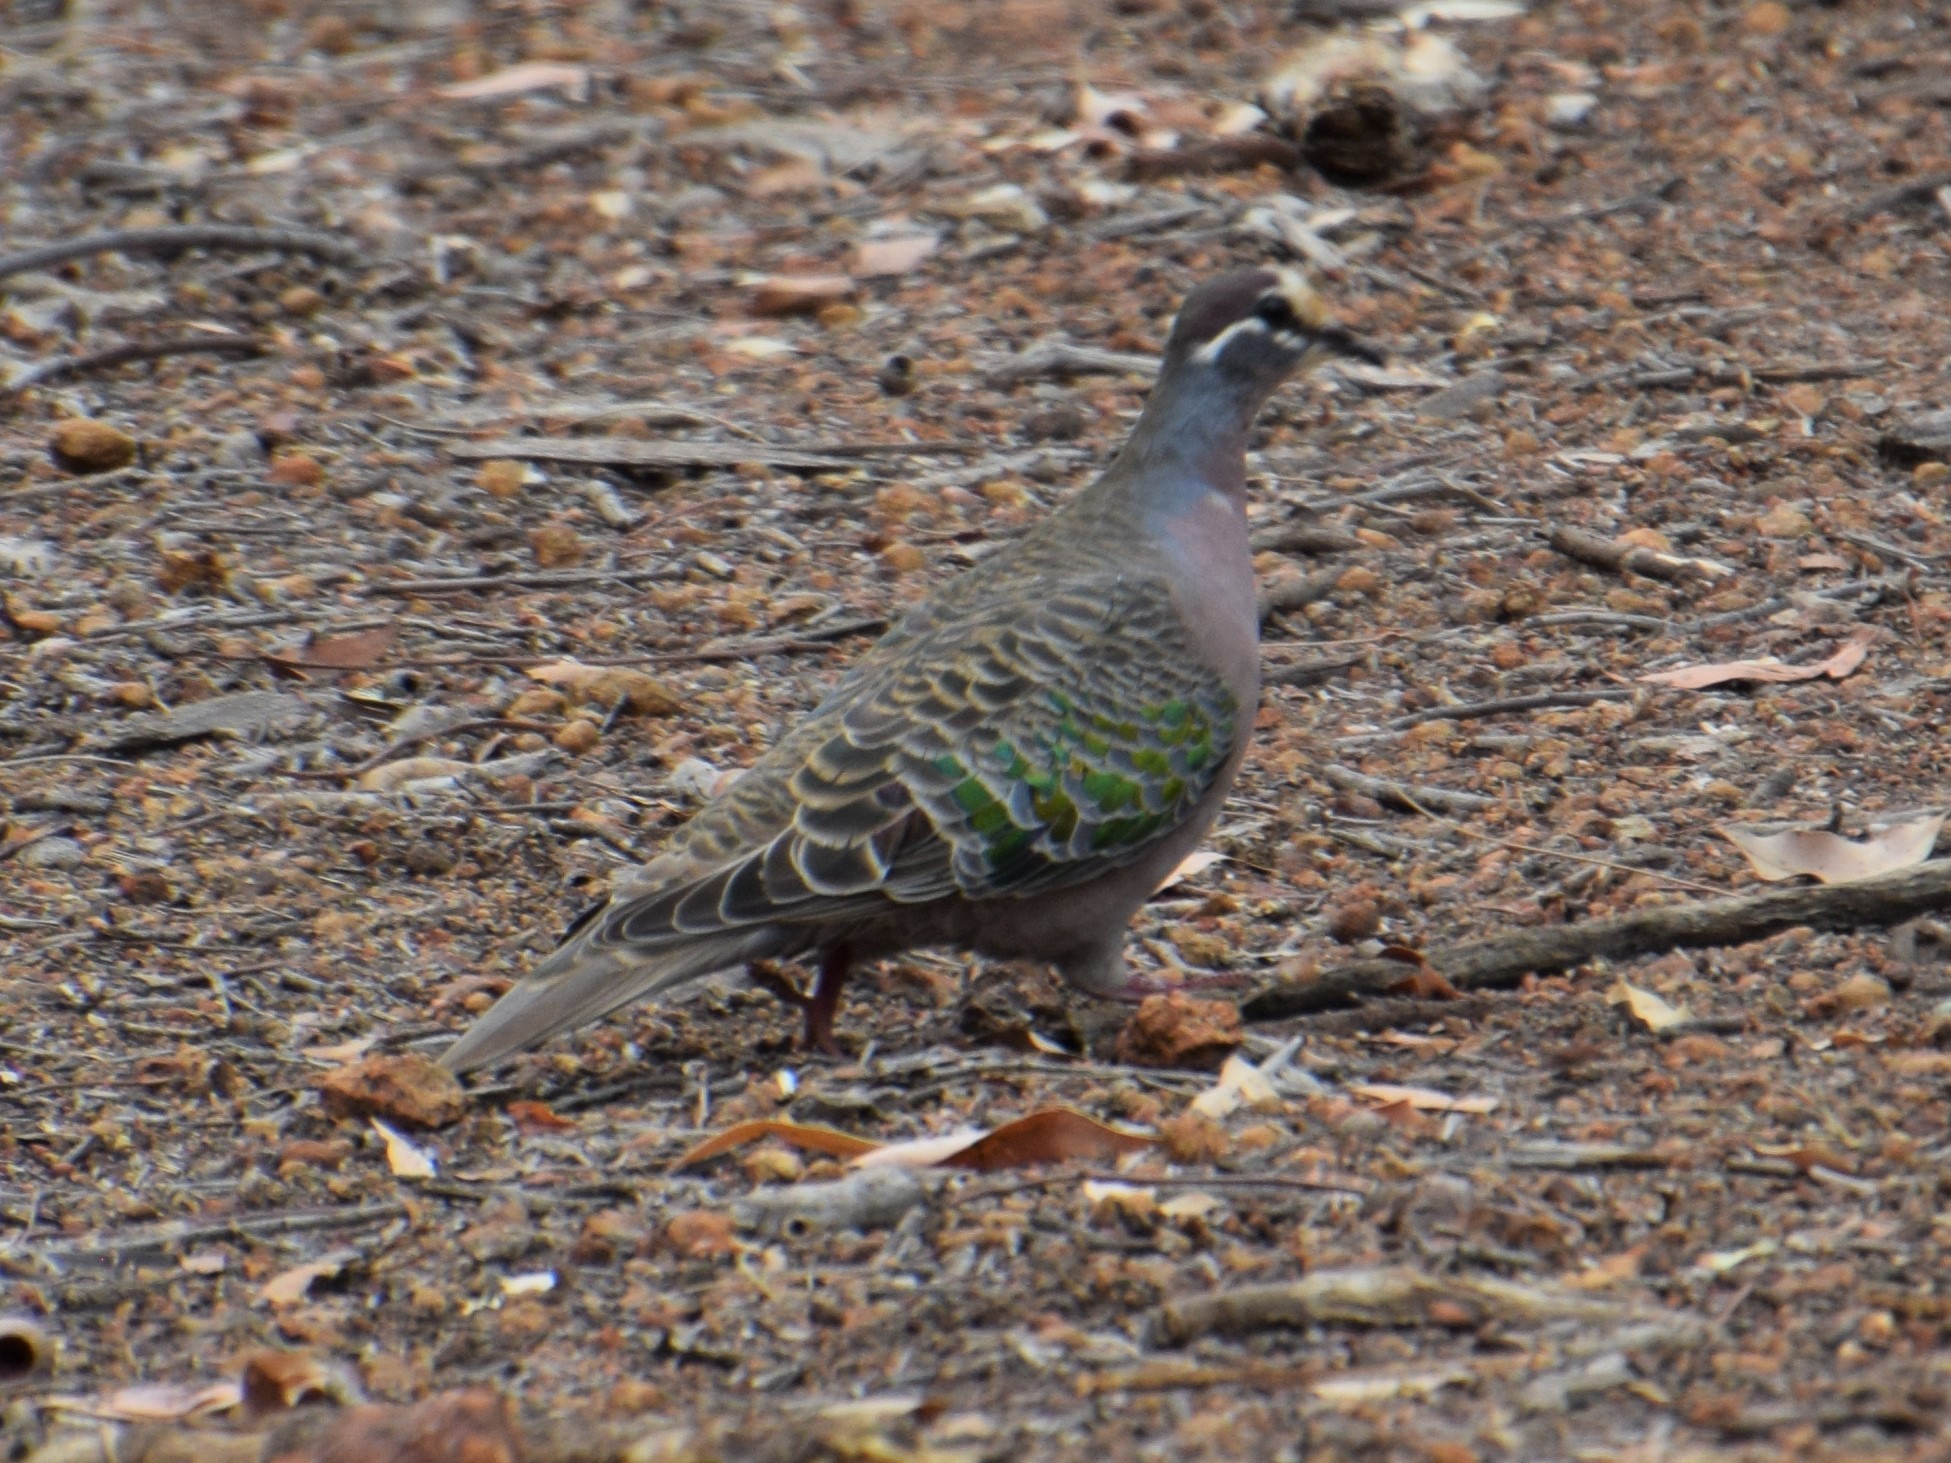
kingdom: Animalia
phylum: Chordata
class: Aves
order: Columbiformes
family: Columbidae
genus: Phaps
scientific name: Phaps chalcoptera
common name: Common bronzewing
